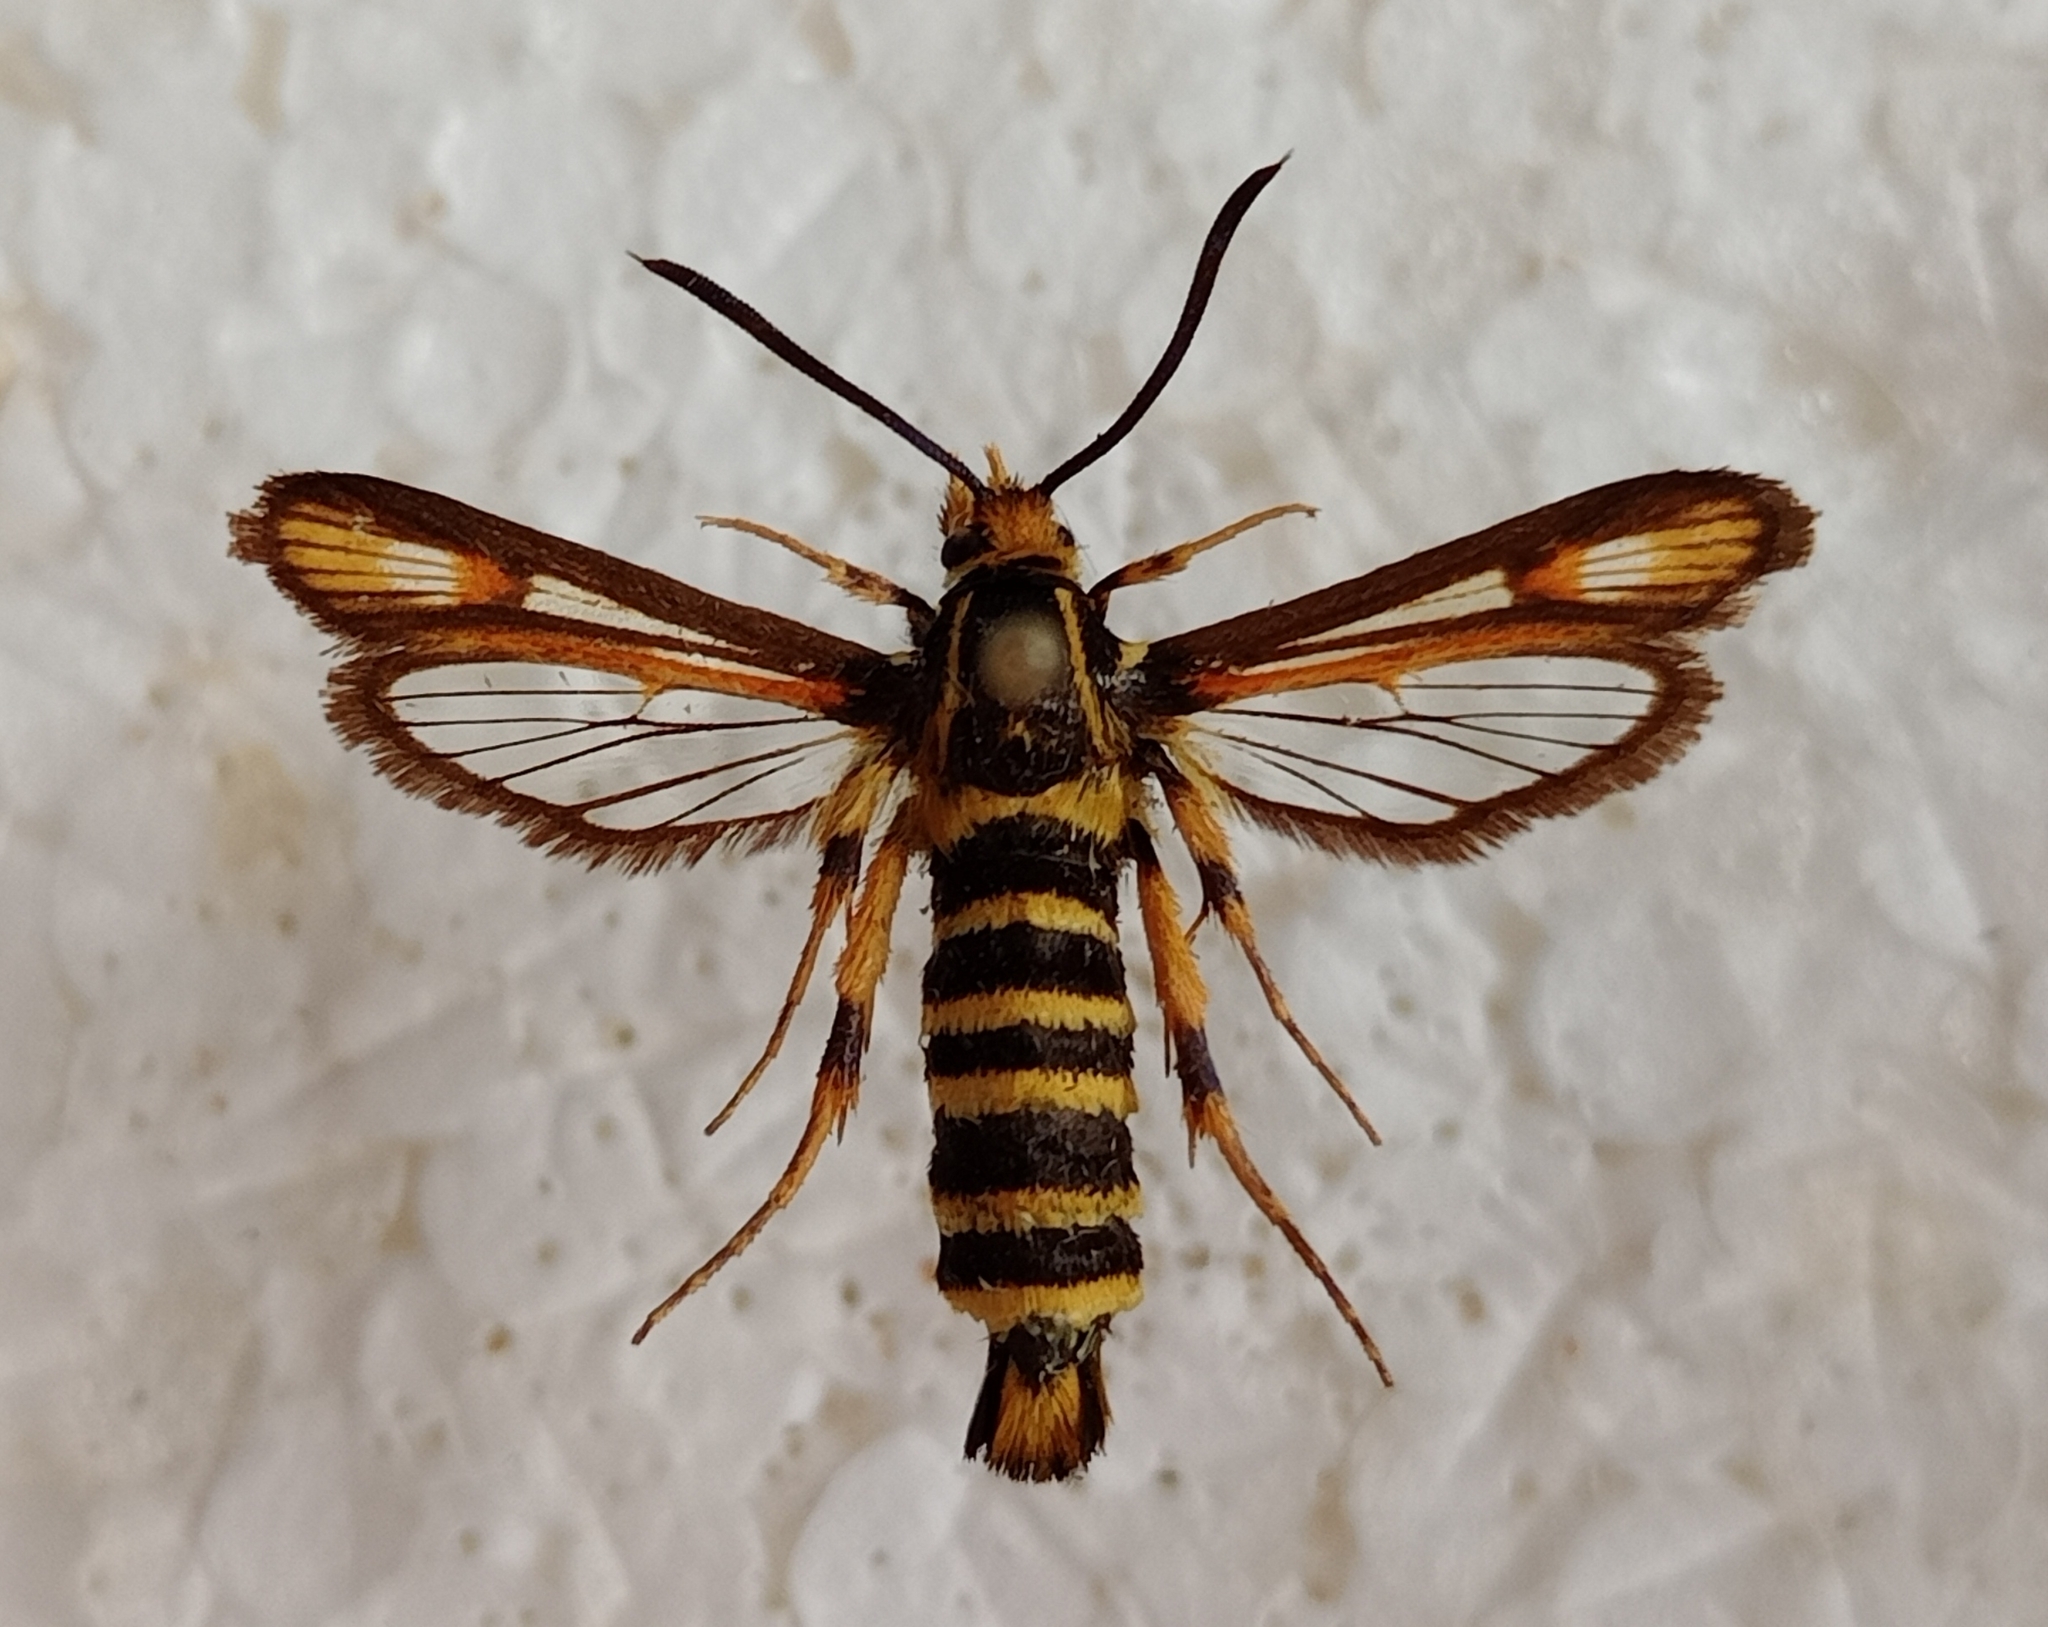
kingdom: Animalia
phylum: Arthropoda
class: Insecta
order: Lepidoptera
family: Sesiidae
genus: Bembecia
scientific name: Bembecia albanensis
